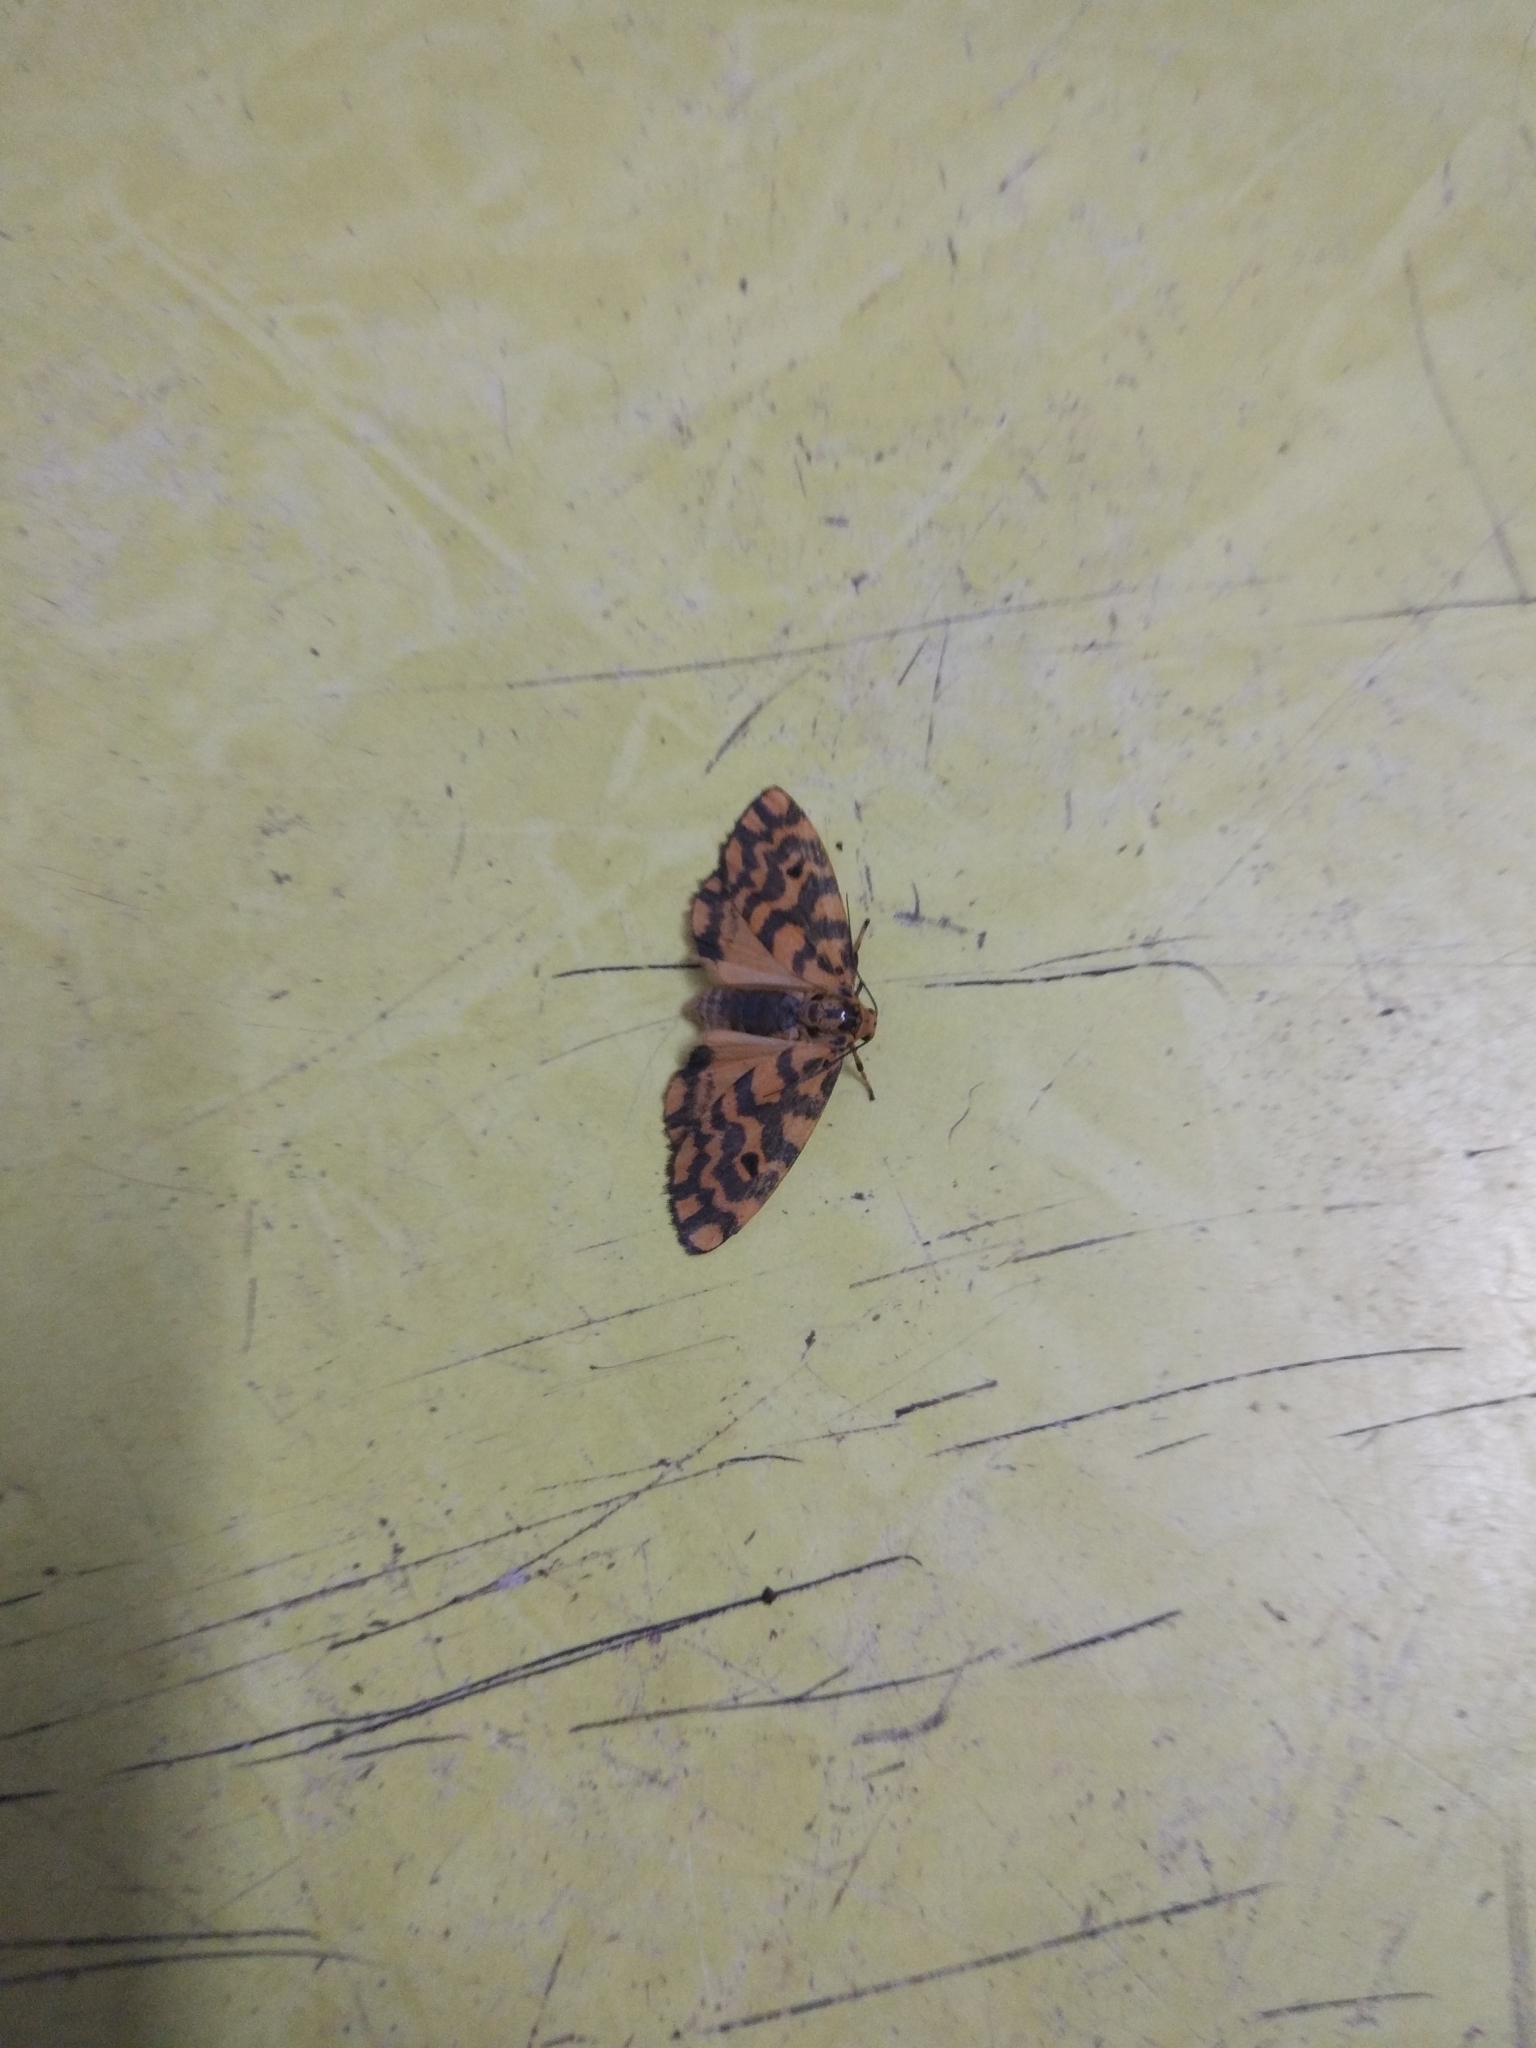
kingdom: Animalia
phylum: Arthropoda
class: Insecta
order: Lepidoptera
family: Erebidae
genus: Nepita
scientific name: Nepita conferta
